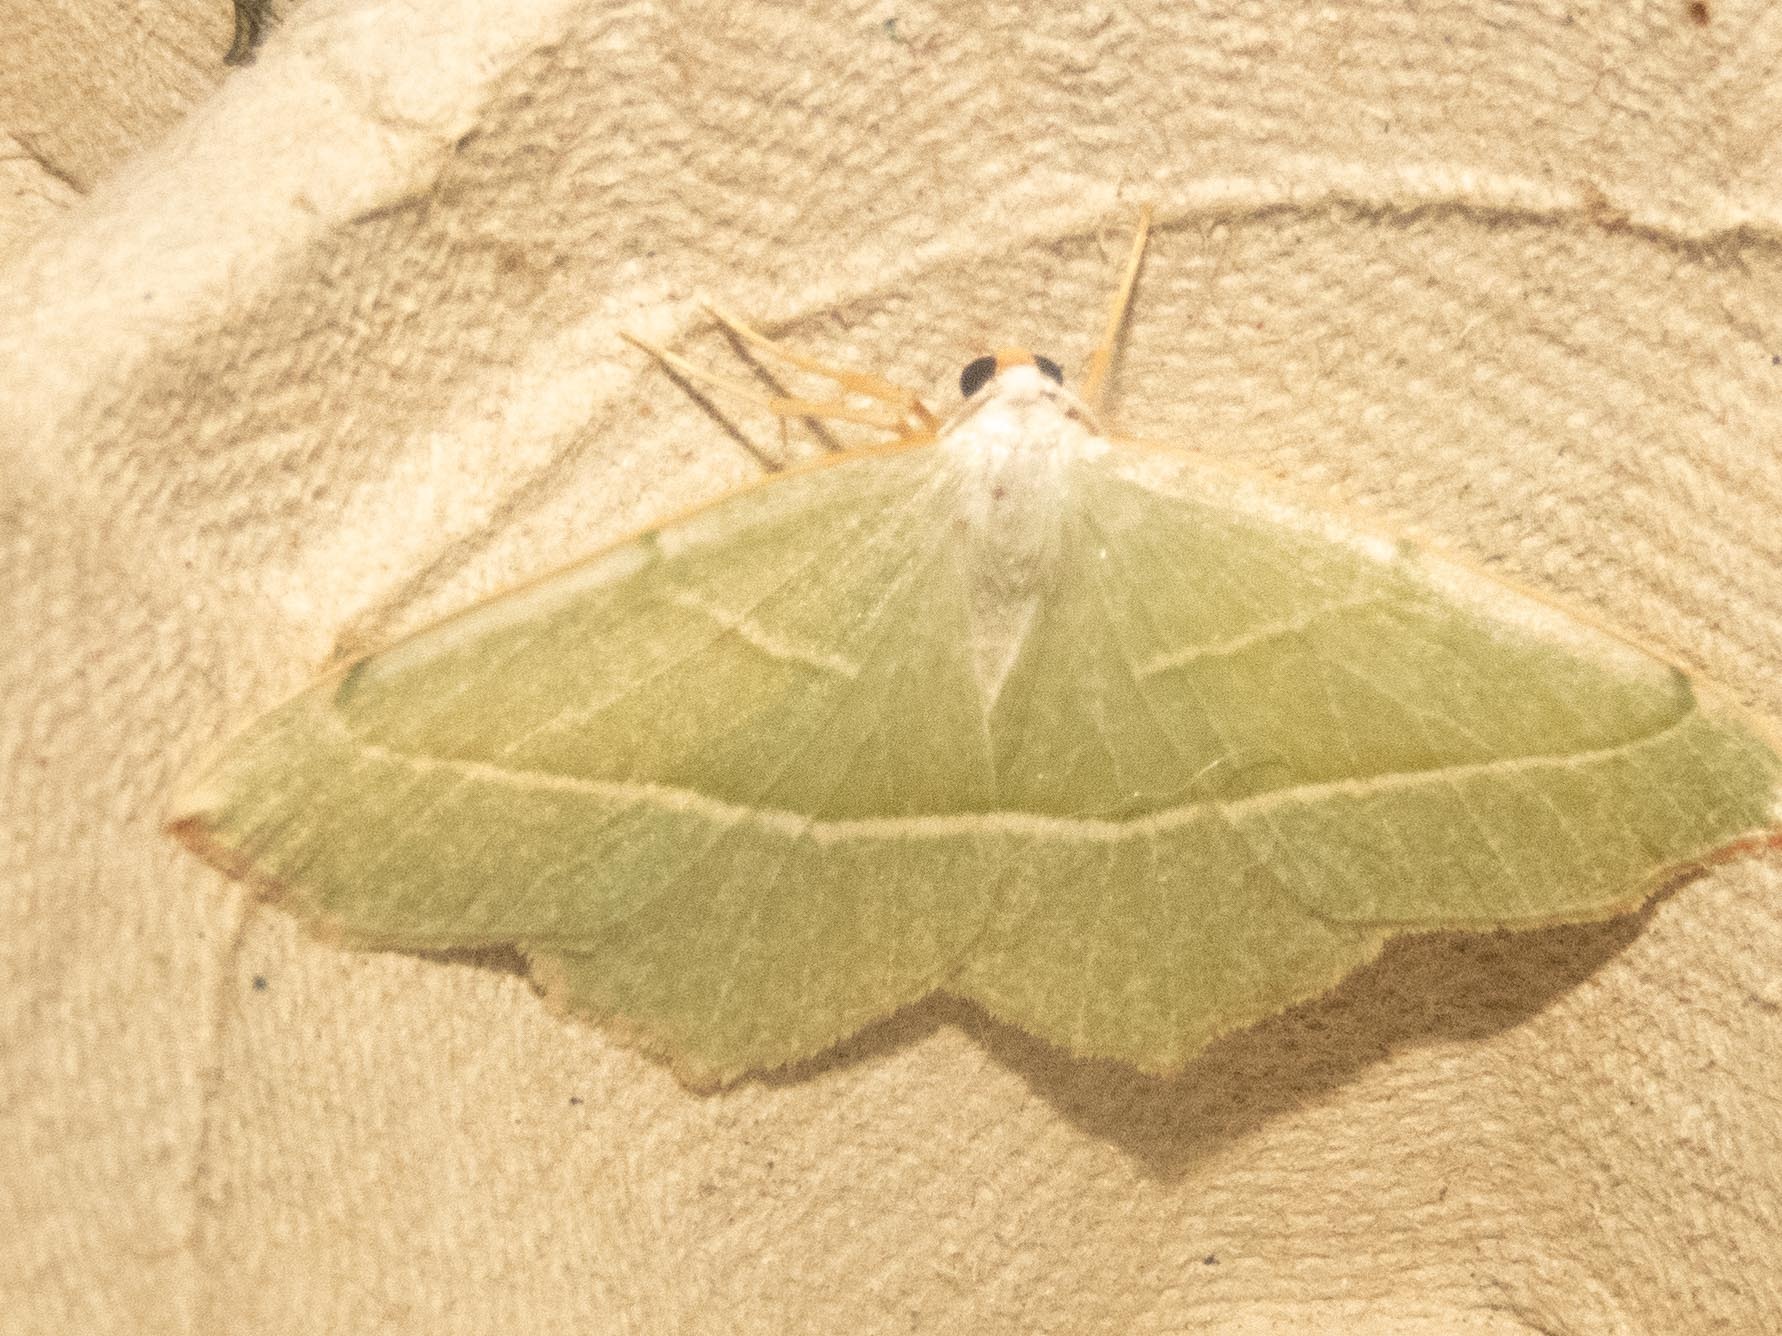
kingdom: Animalia
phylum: Arthropoda
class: Insecta
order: Lepidoptera
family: Geometridae
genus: Campaea
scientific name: Campaea margaritaria
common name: Light emerald
